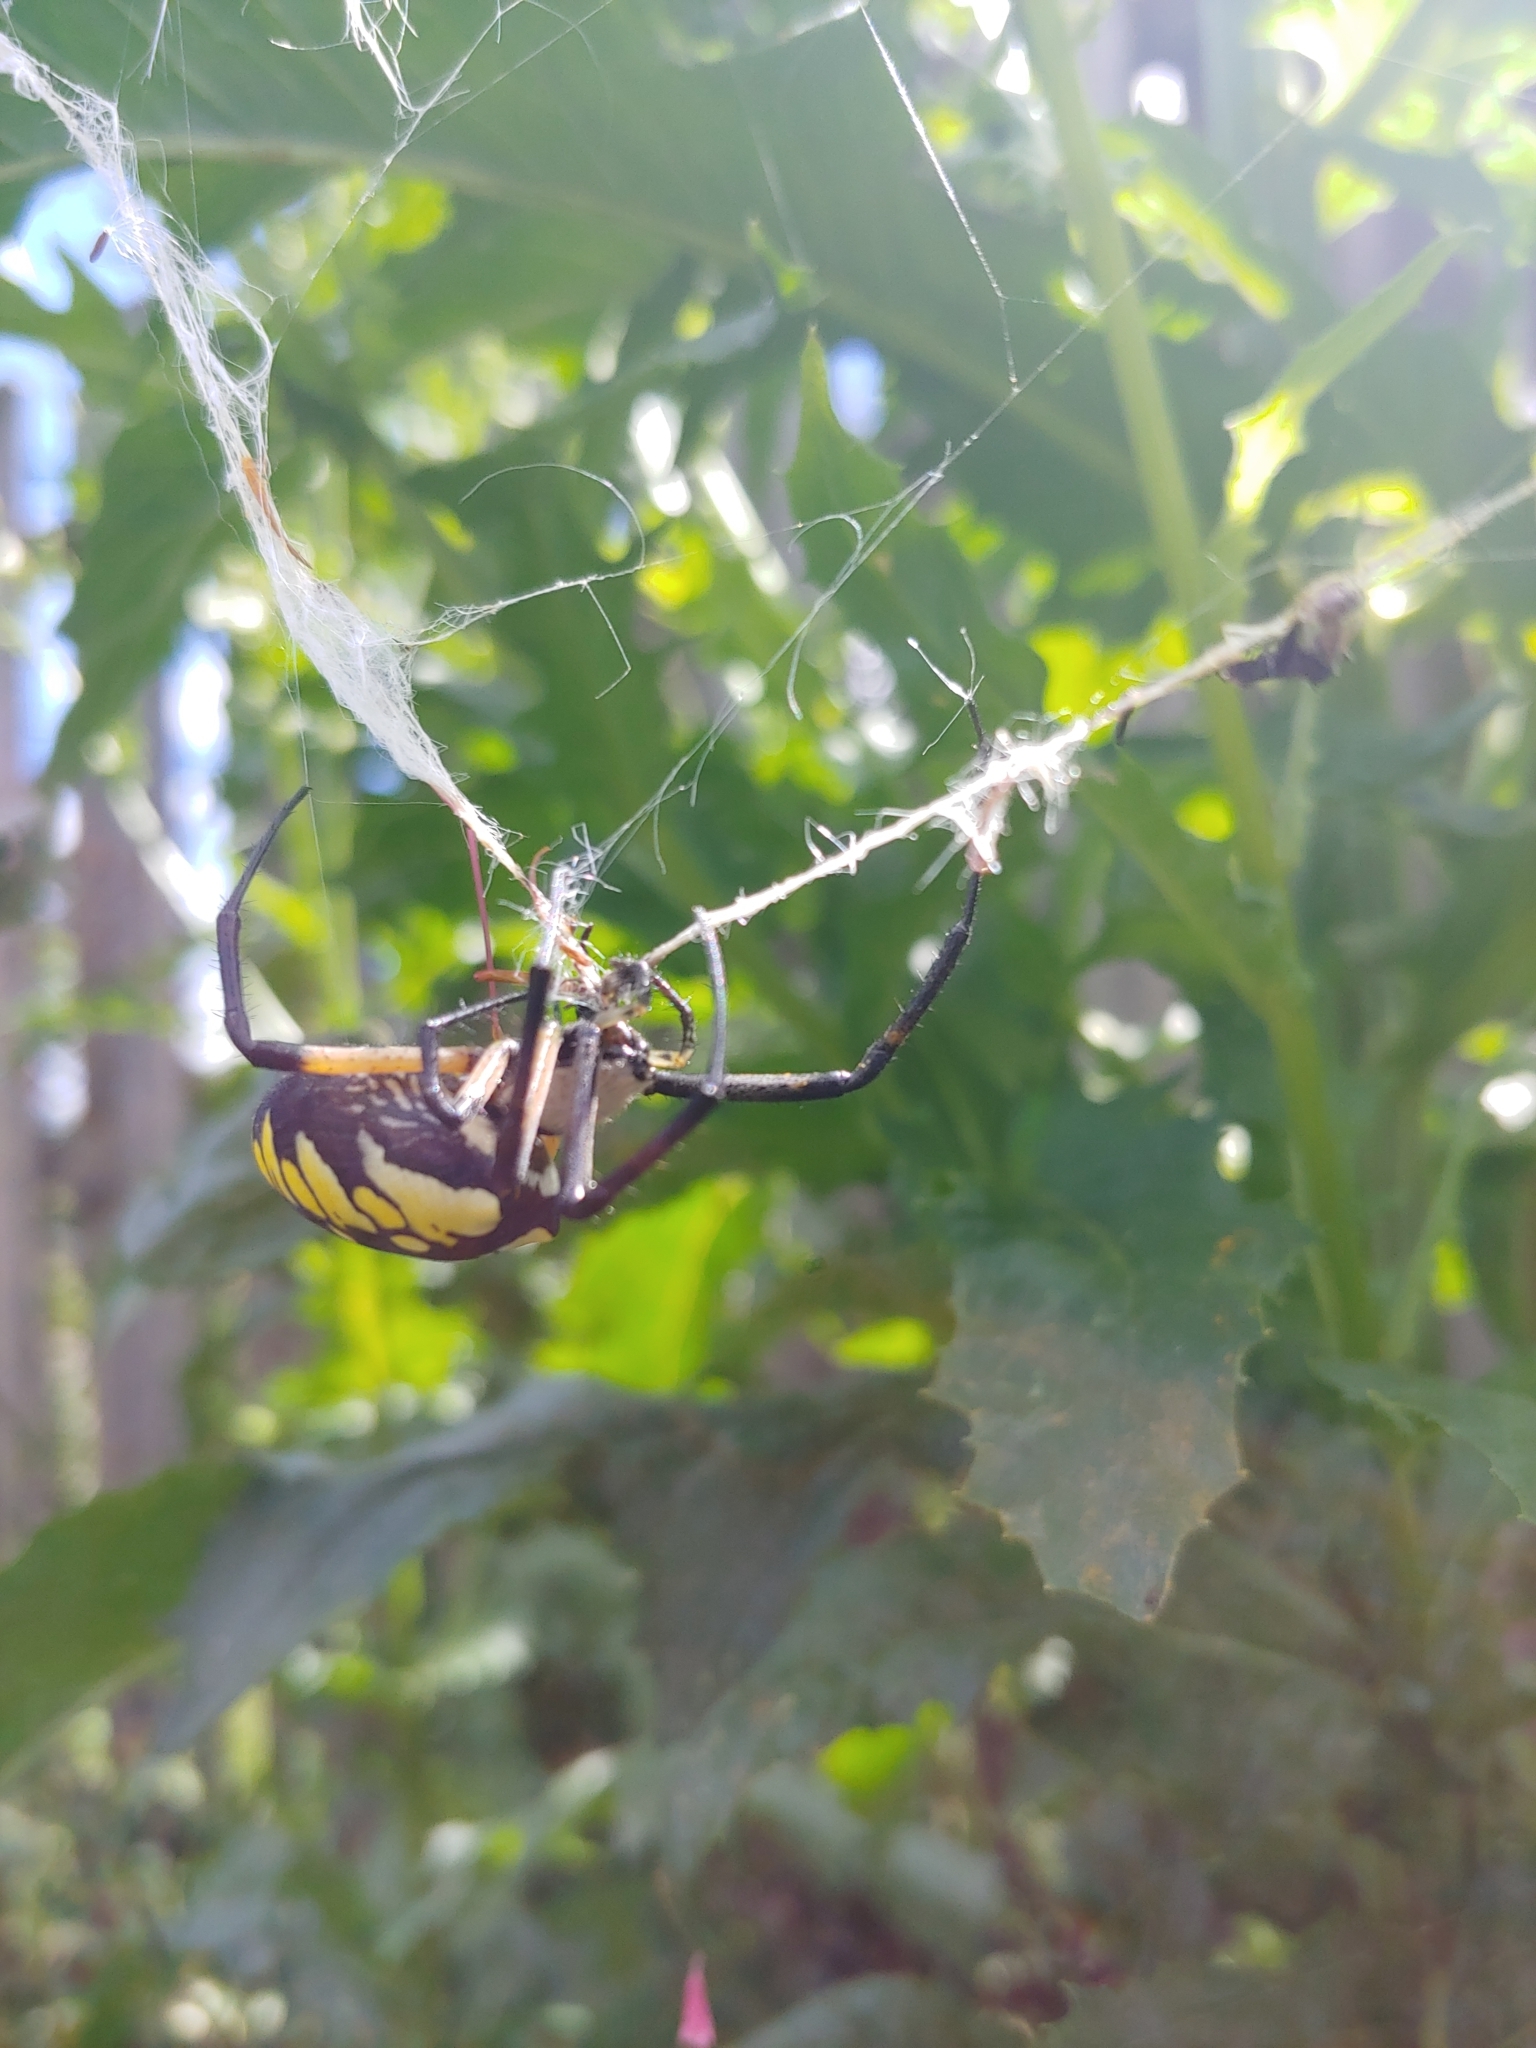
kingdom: Animalia
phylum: Arthropoda
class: Arachnida
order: Araneae
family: Araneidae
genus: Argiope
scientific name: Argiope aurantia
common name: Orb weavers
